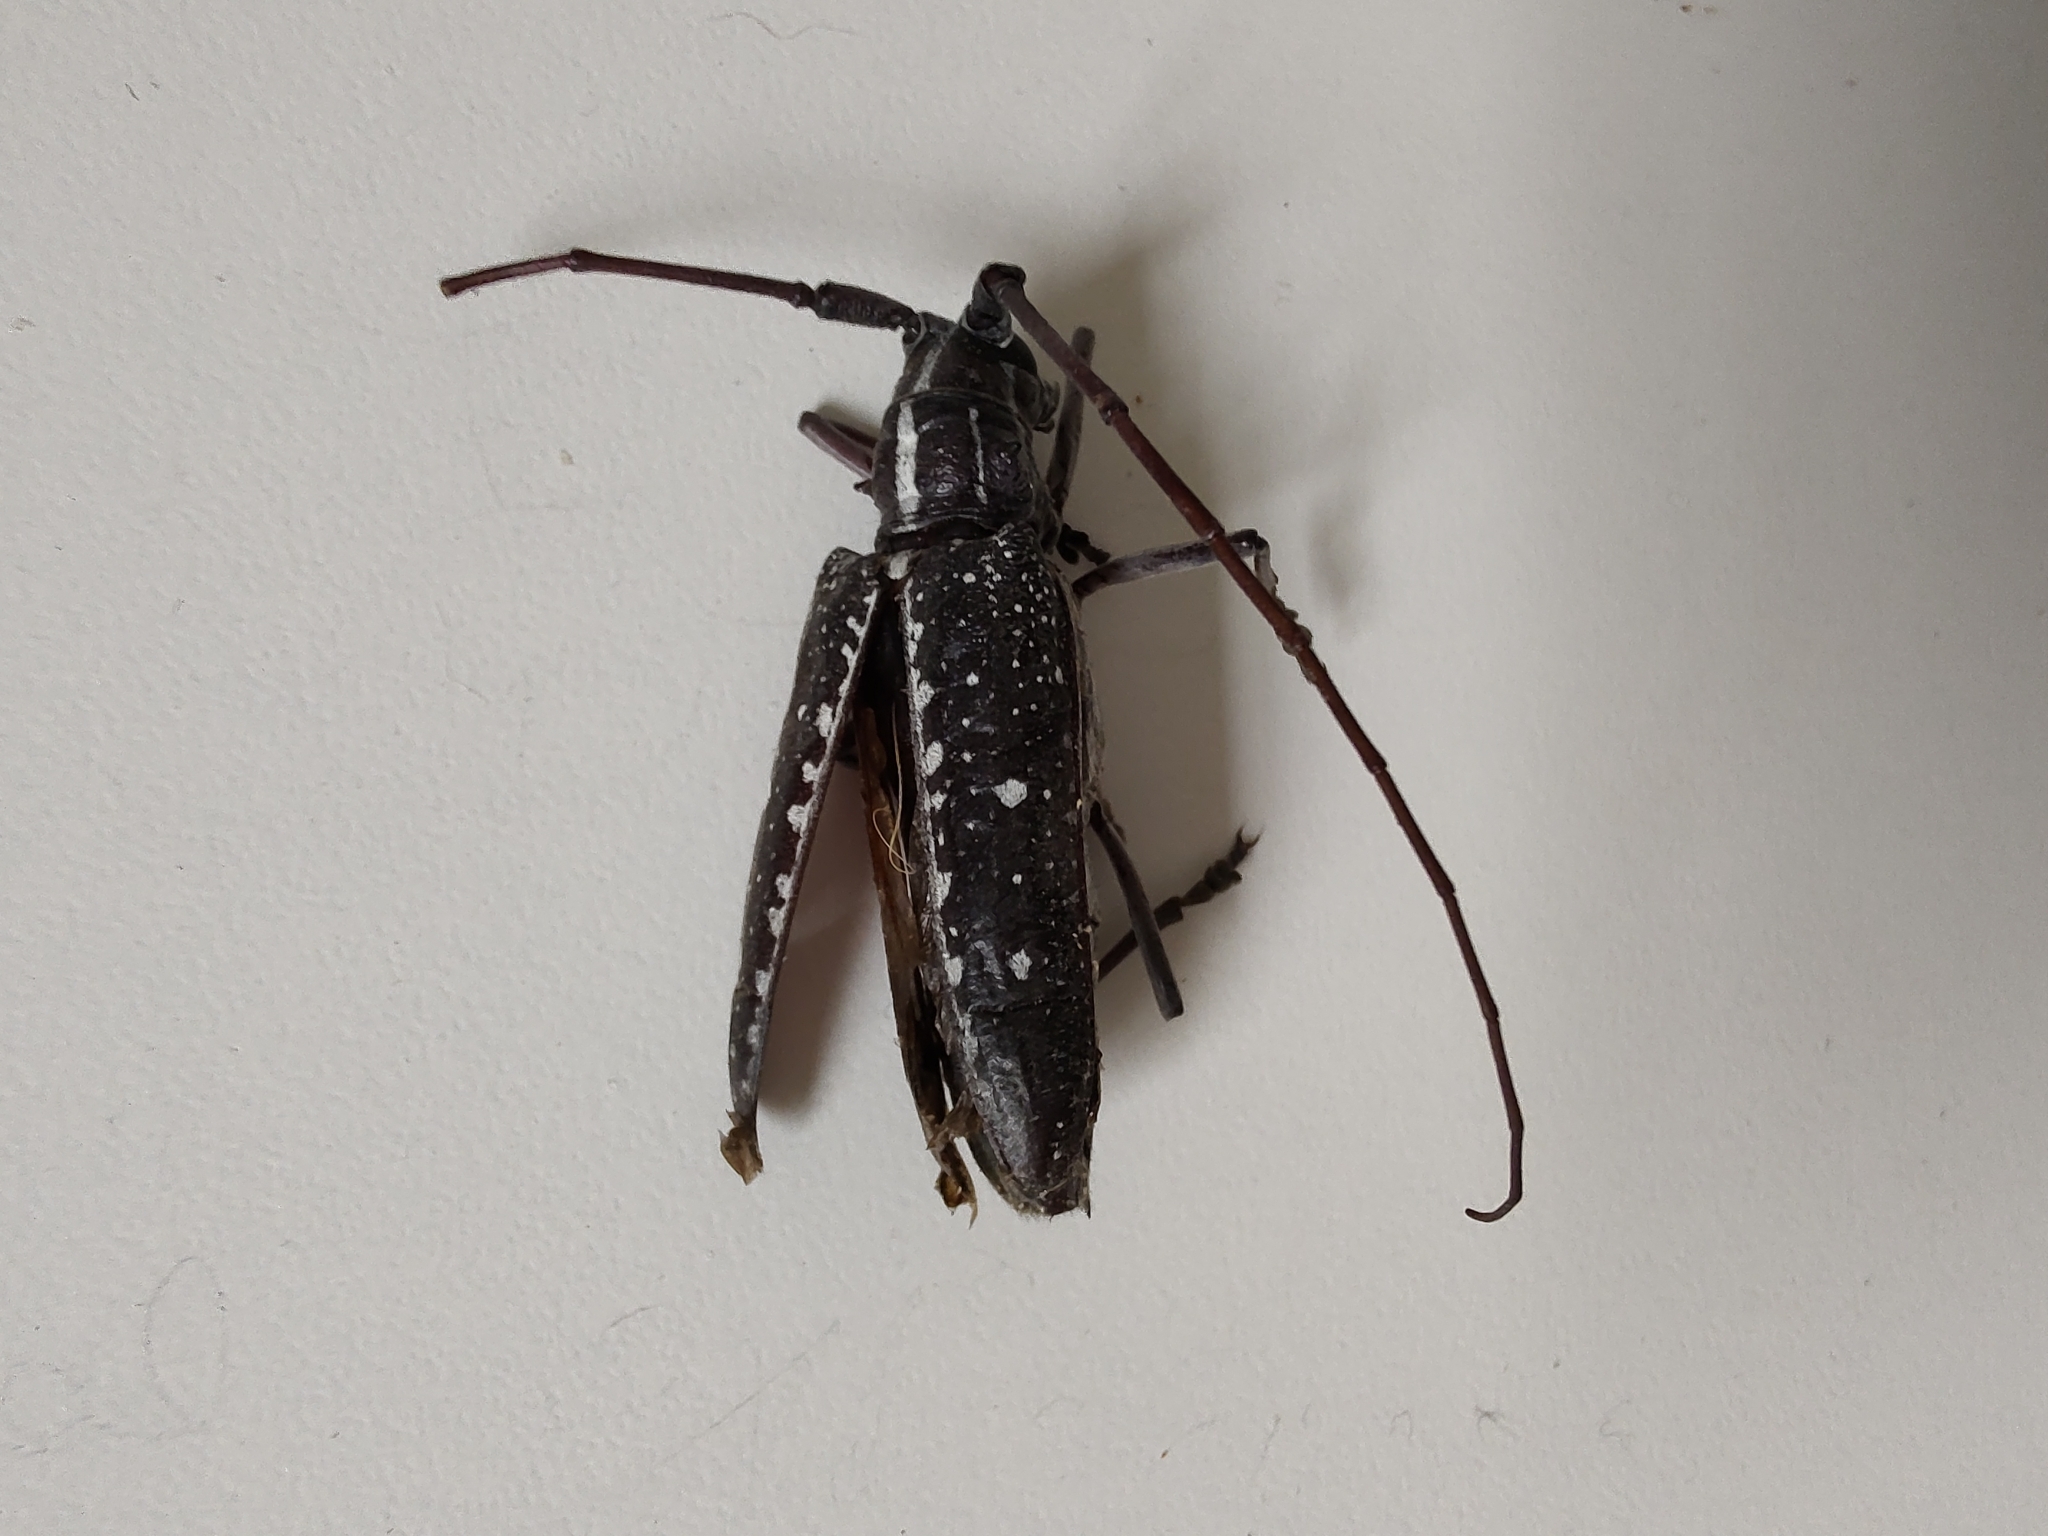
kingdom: Animalia
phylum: Arthropoda
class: Insecta
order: Coleoptera
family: Cerambycidae
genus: Taeniotes
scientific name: Taeniotes amazonum
